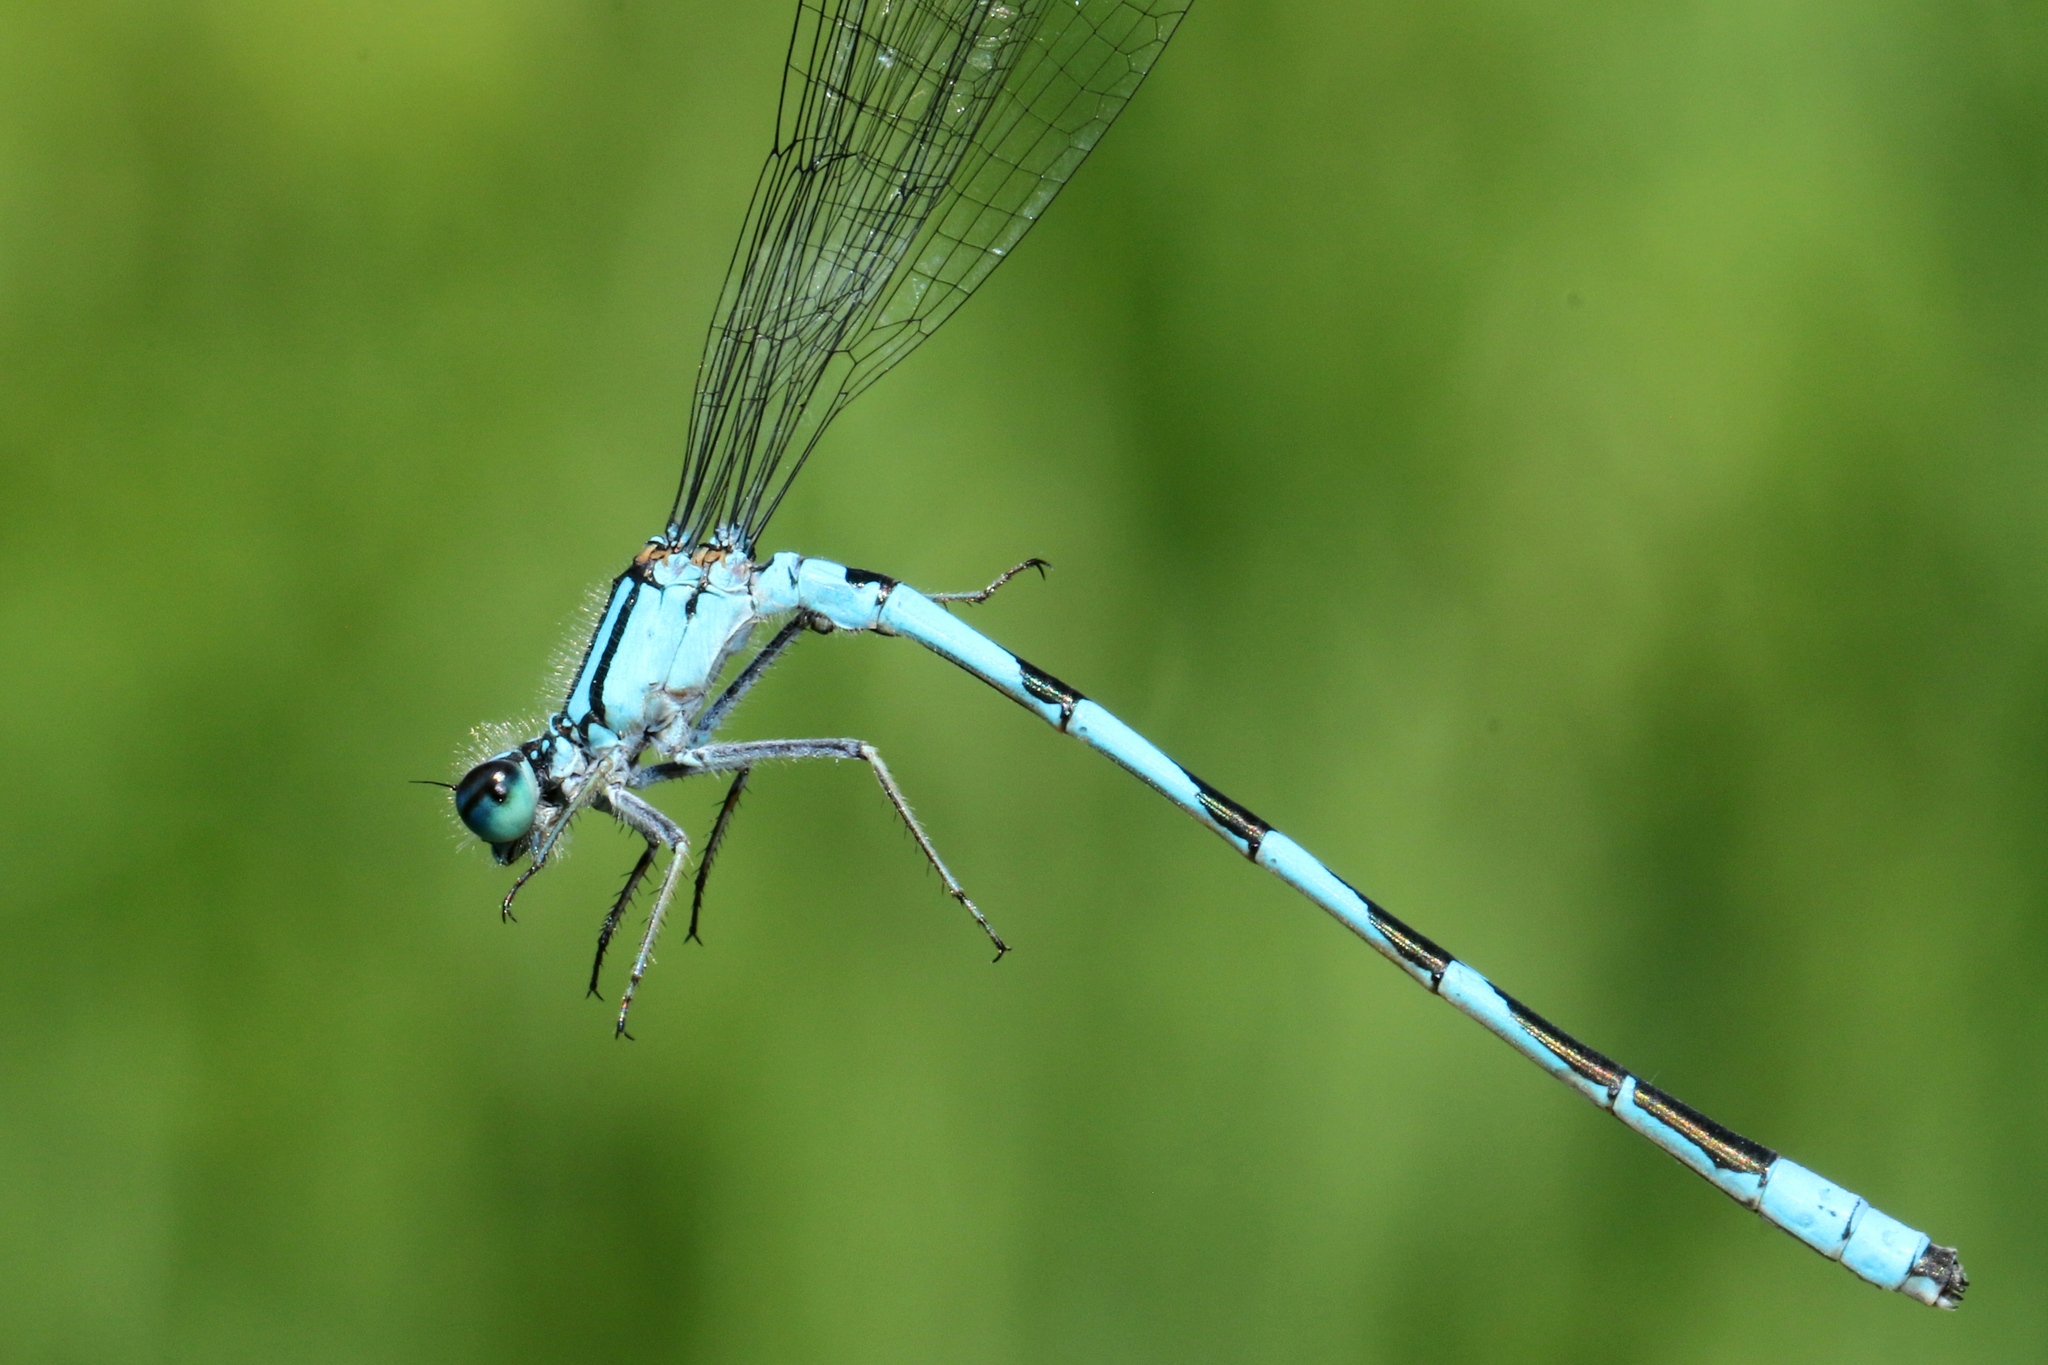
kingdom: Animalia
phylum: Arthropoda
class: Insecta
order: Odonata
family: Coenagrionidae
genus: Enallagma
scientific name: Enallagma hageni
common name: Hagen's bluet
